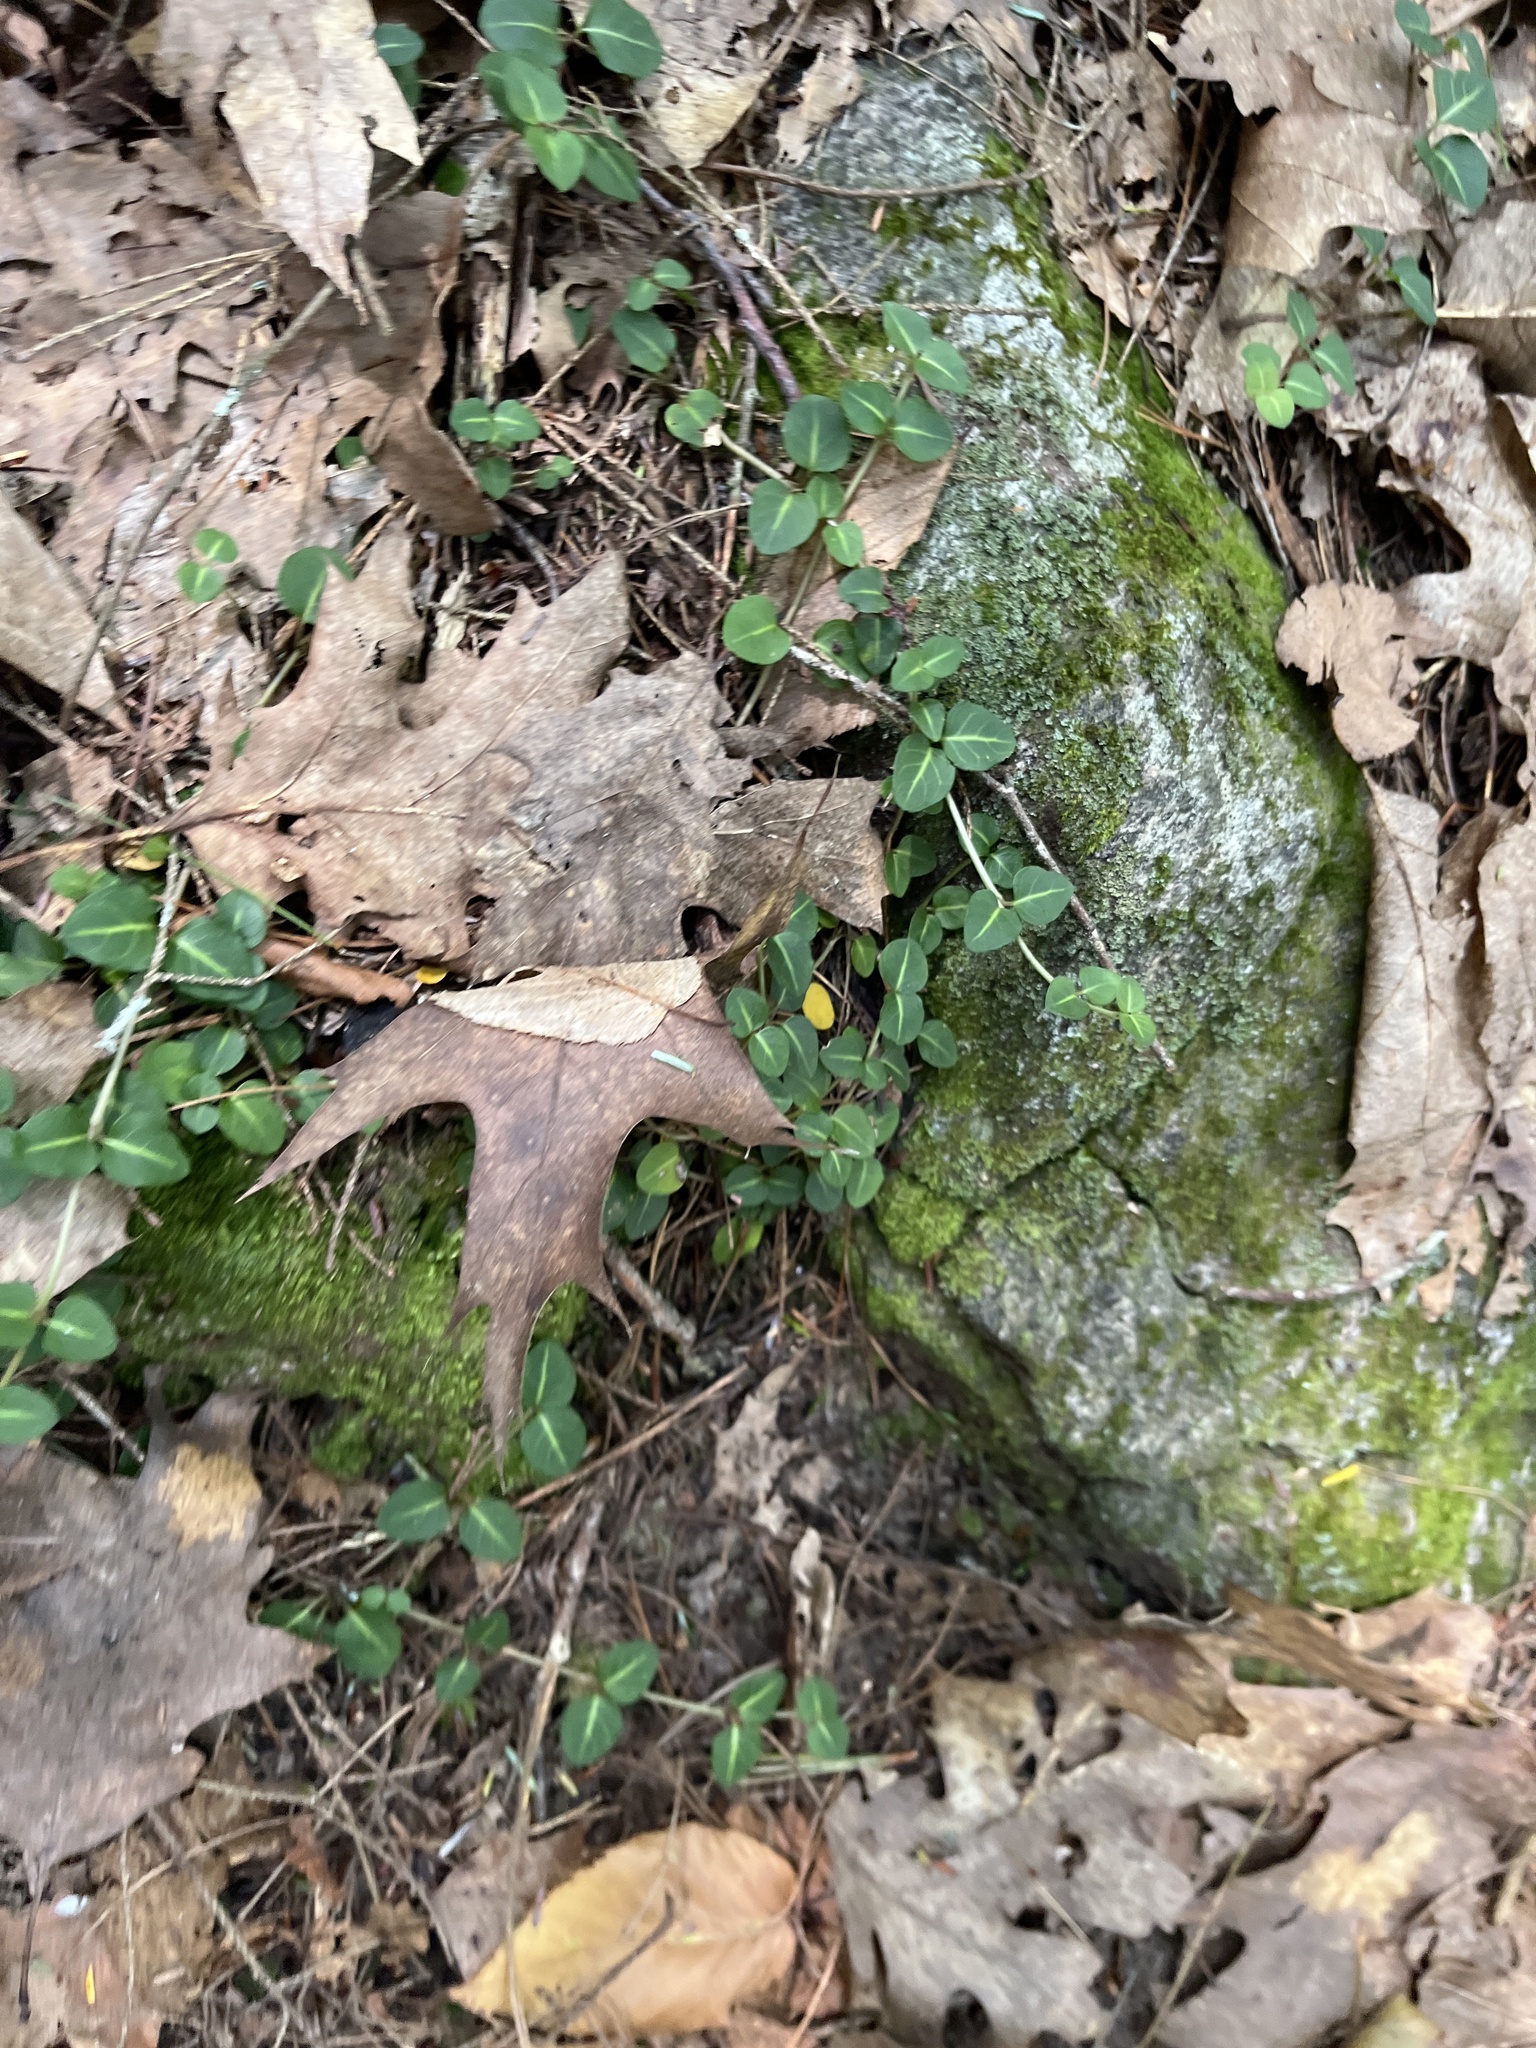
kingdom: Plantae
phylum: Tracheophyta
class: Magnoliopsida
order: Gentianales
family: Rubiaceae
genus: Mitchella
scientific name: Mitchella repens
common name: Partridge-berry
